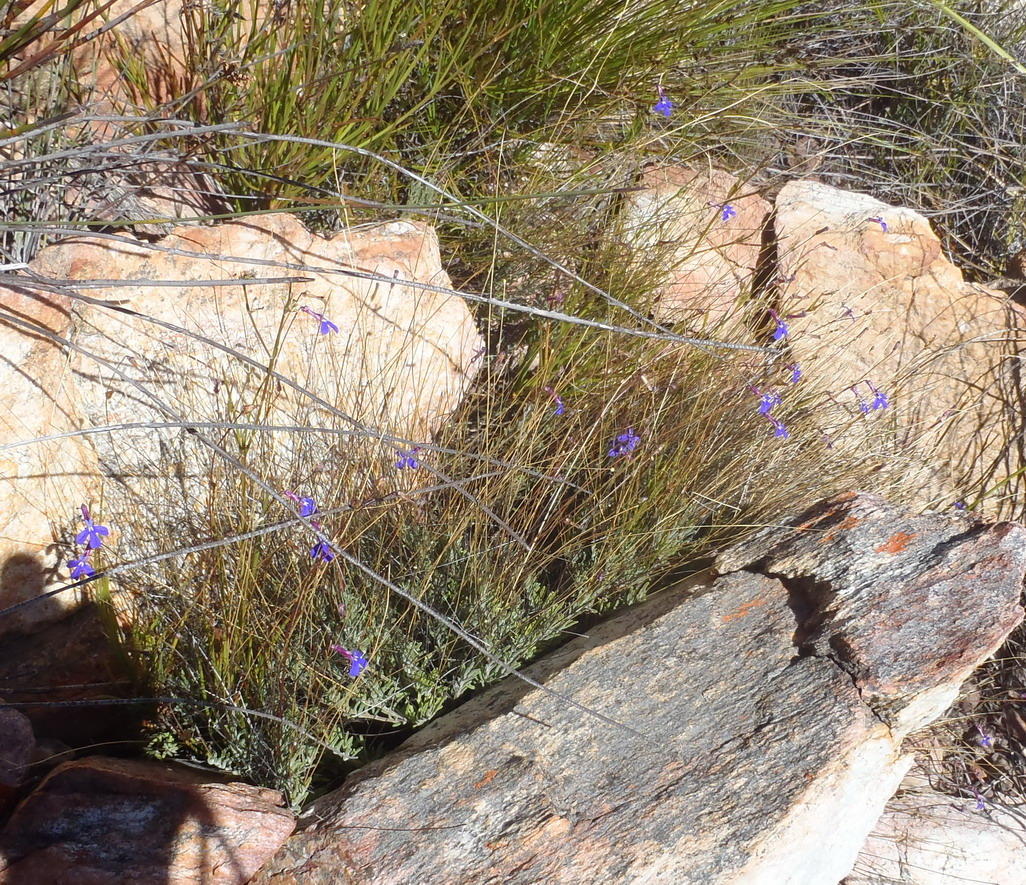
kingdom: Plantae
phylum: Tracheophyta
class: Magnoliopsida
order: Asterales
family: Campanulaceae
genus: Lobelia
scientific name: Lobelia tomentosa
